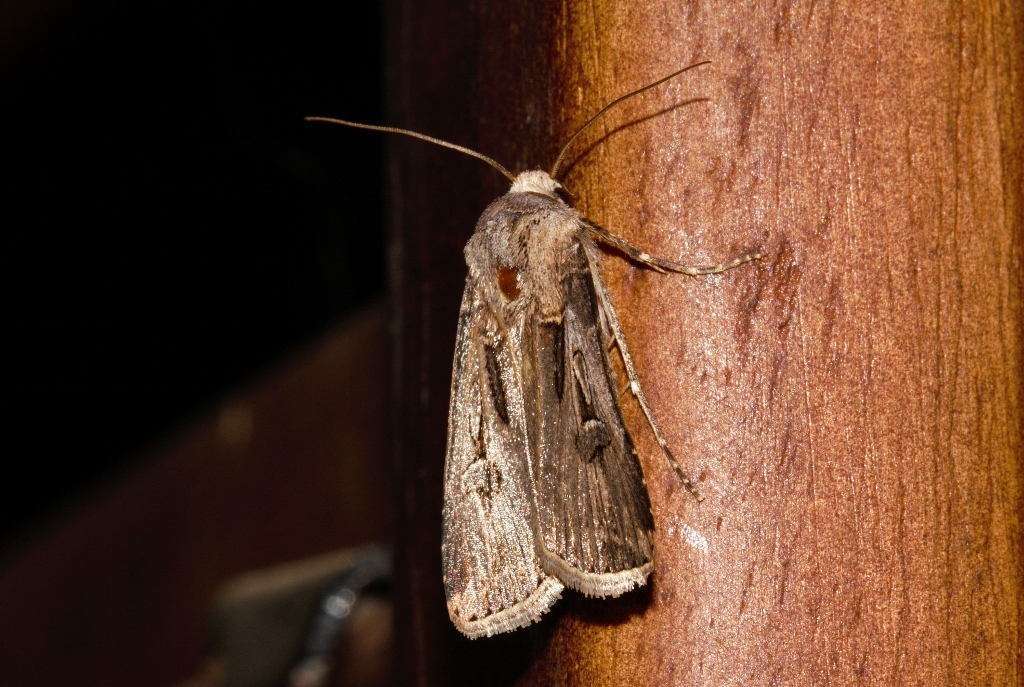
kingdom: Animalia
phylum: Arthropoda
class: Insecta
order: Lepidoptera
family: Noctuidae
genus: Agrotis
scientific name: Agrotis
